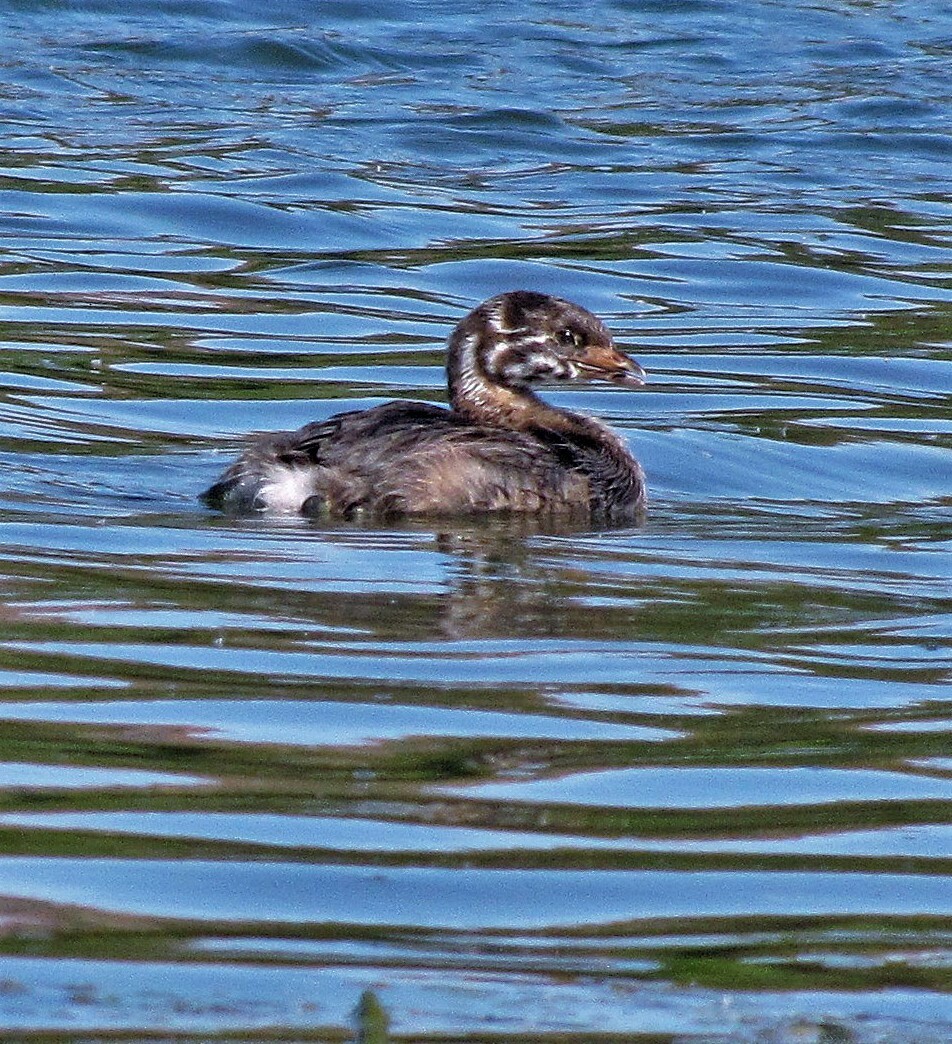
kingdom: Animalia
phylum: Chordata
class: Aves
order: Podicipediformes
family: Podicipedidae
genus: Podilymbus
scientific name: Podilymbus podiceps
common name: Pied-billed grebe
